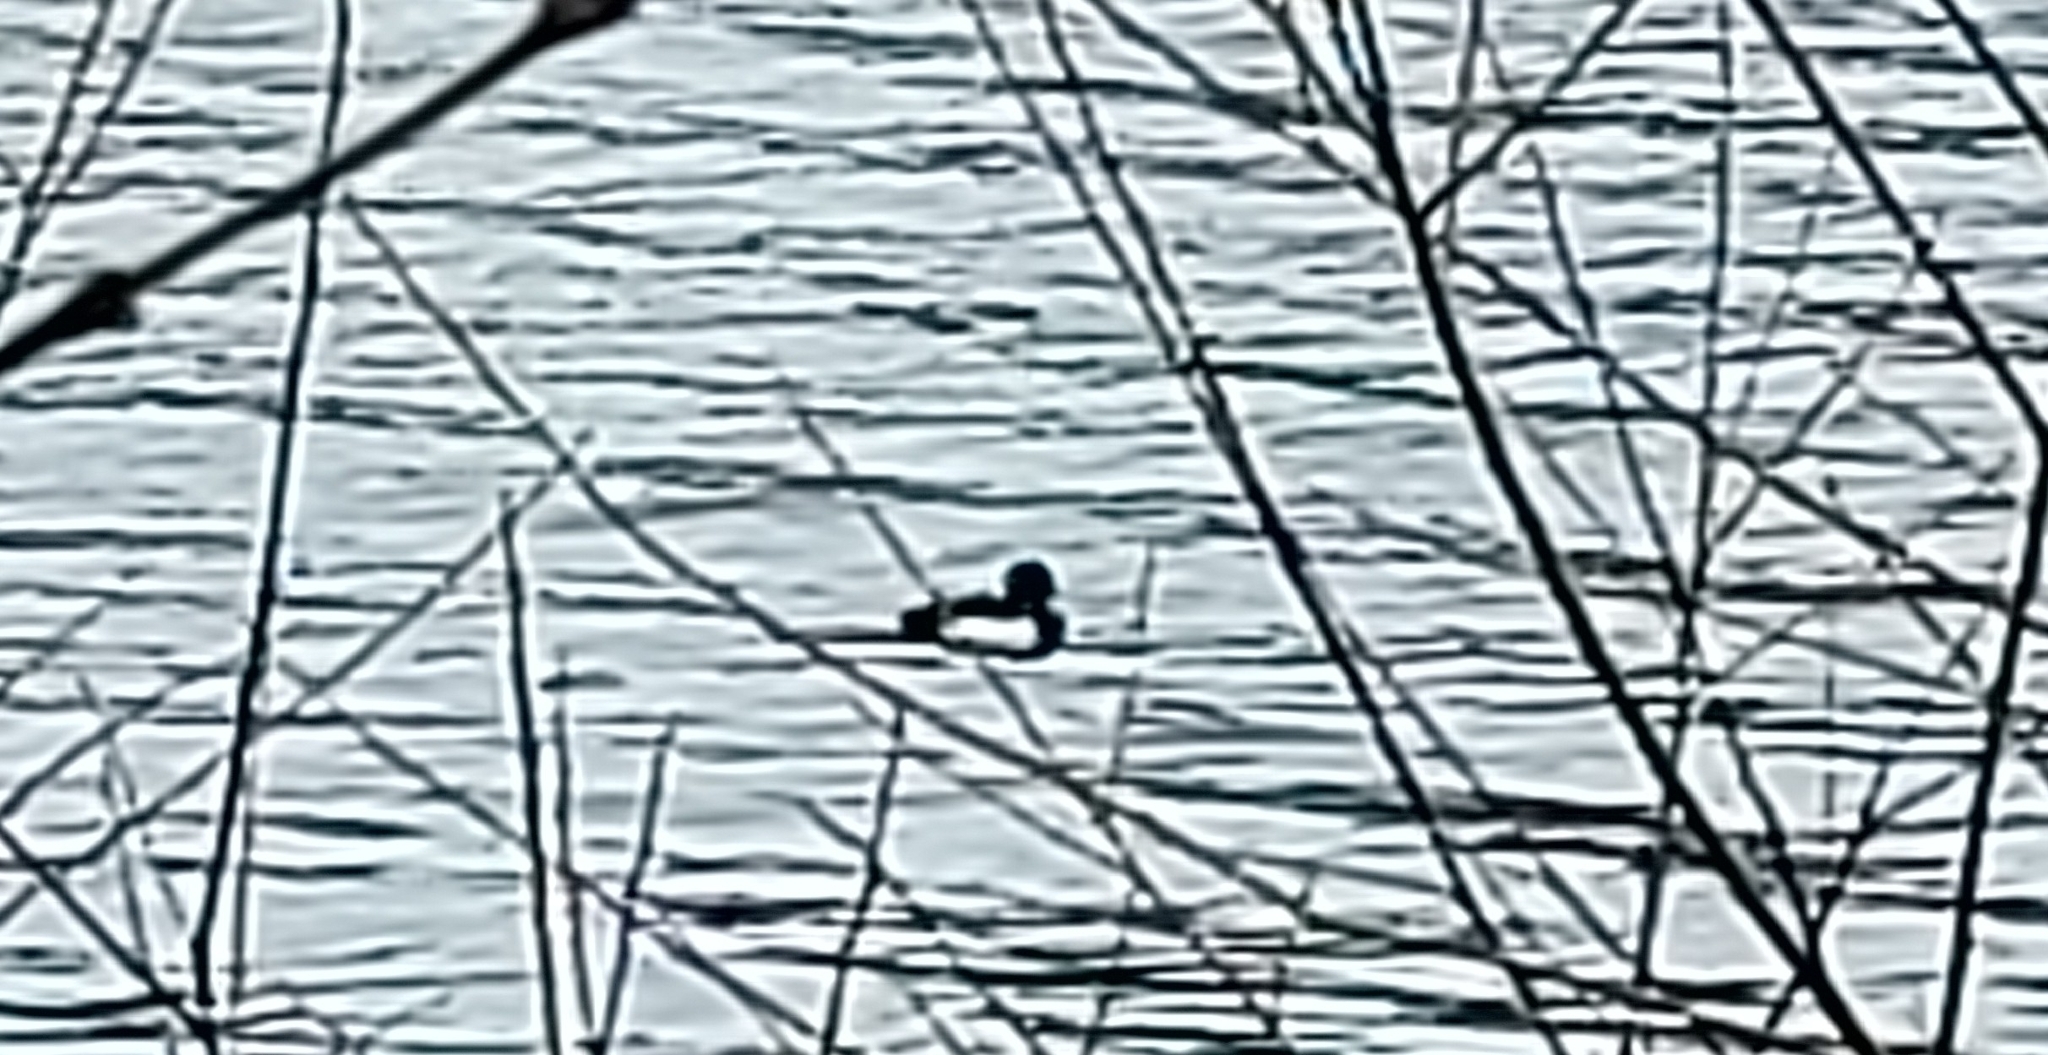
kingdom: Animalia
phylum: Chordata
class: Aves
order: Anseriformes
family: Anatidae
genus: Aythya
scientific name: Aythya fuligula
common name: Tufted duck
